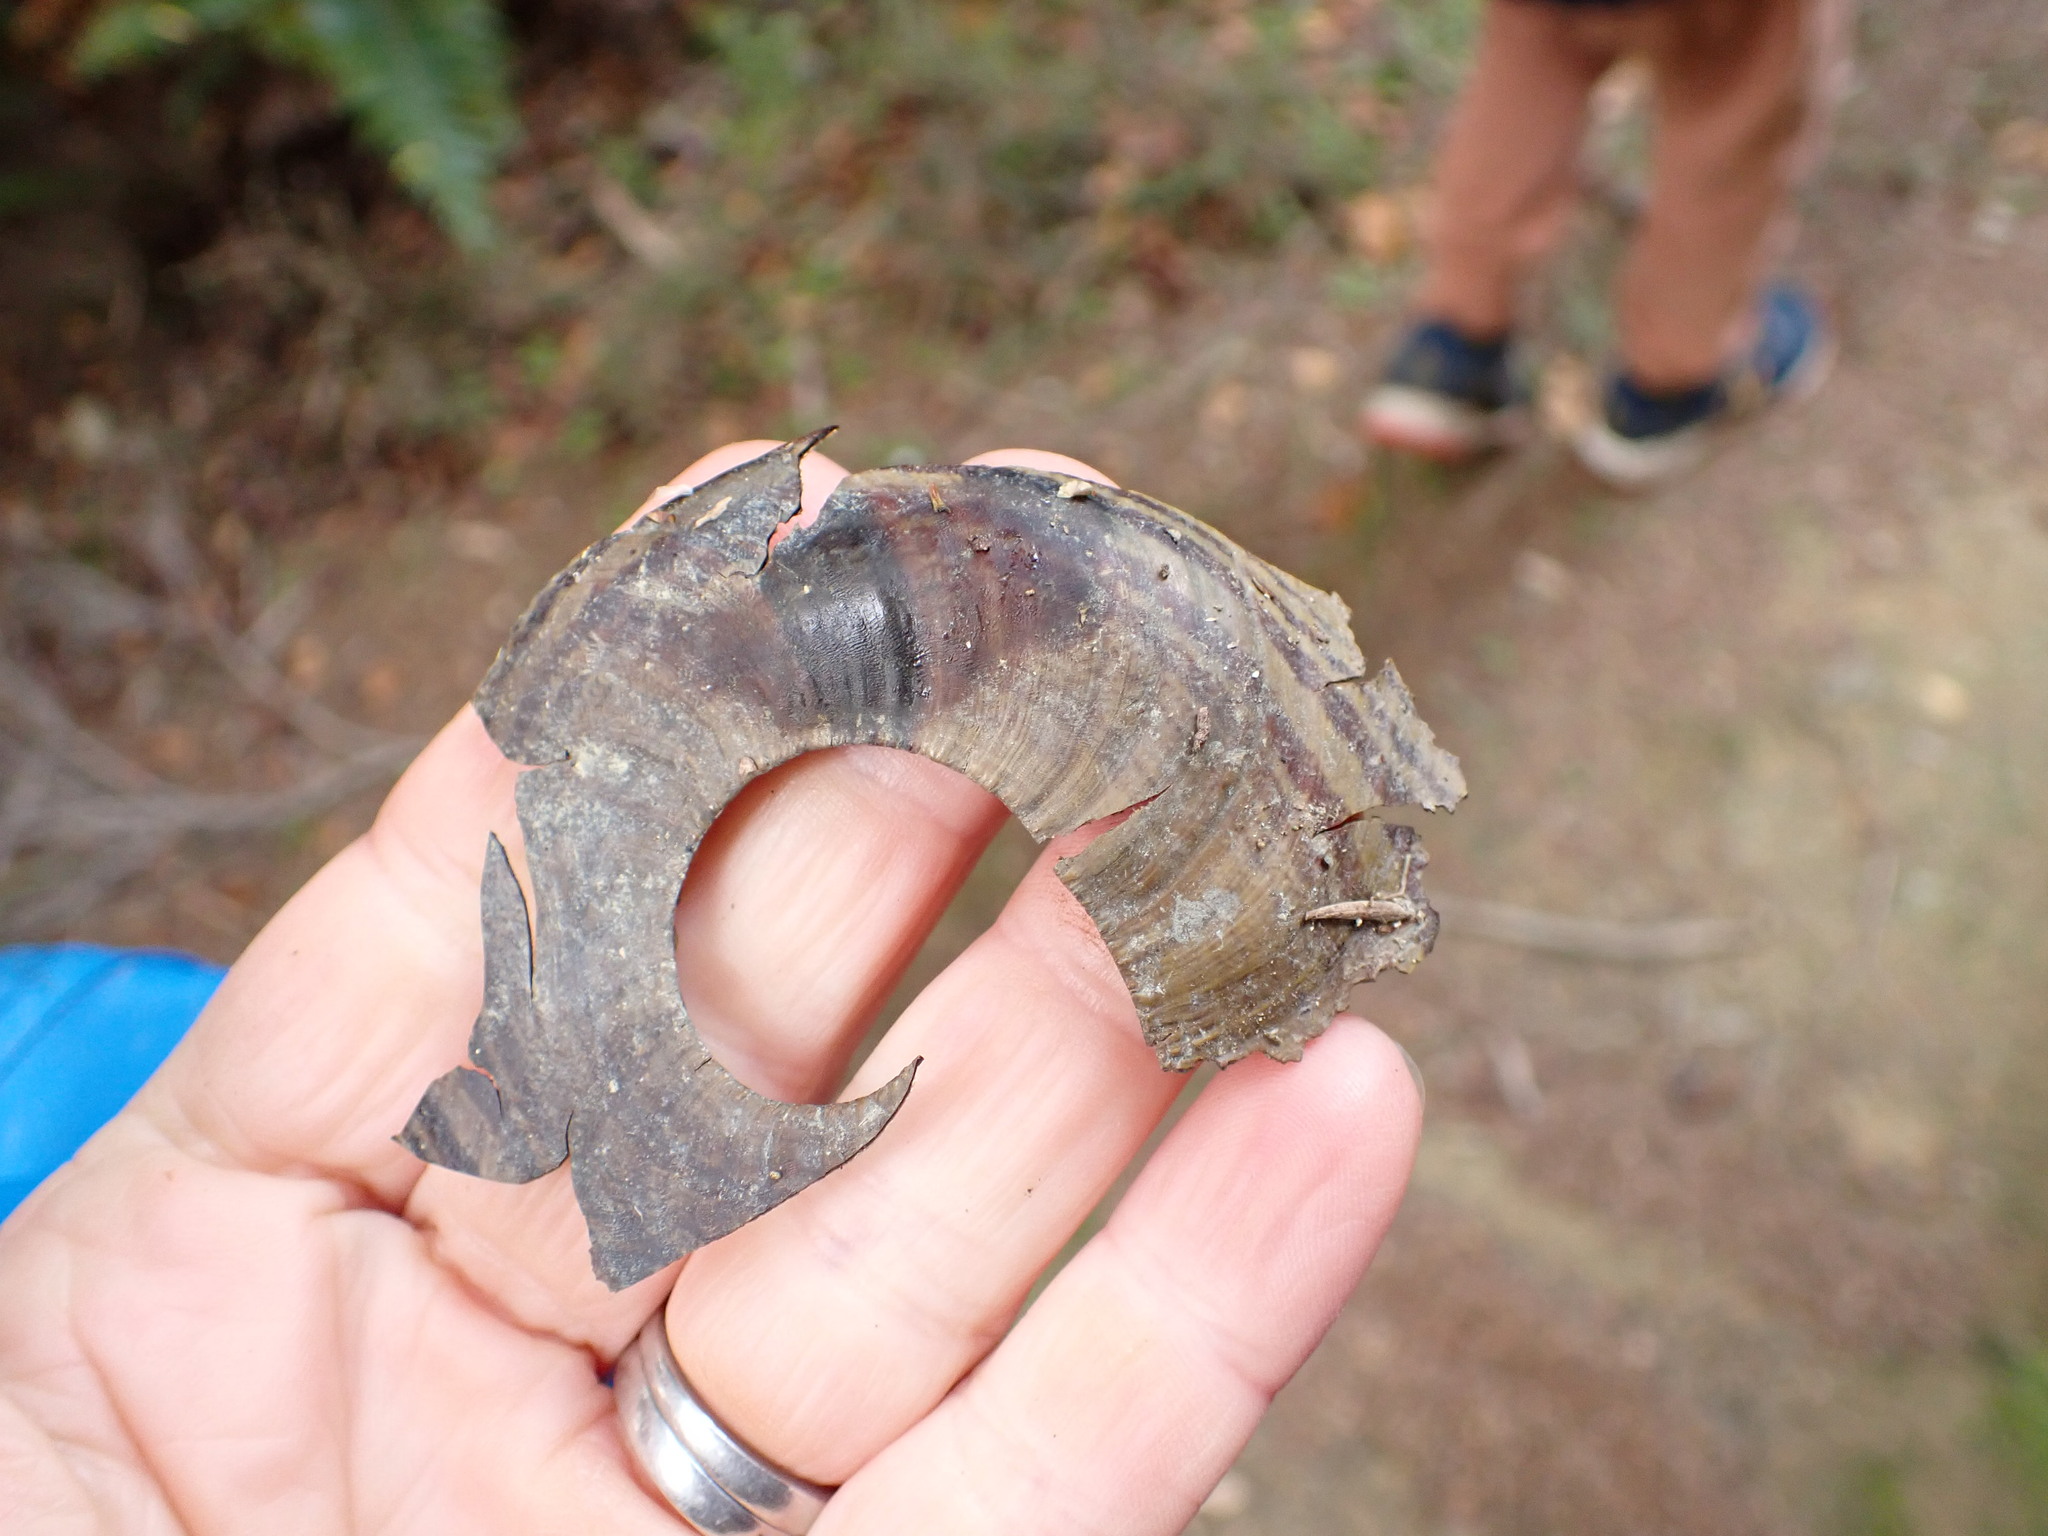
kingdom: Animalia
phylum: Mollusca
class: Gastropoda
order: Stylommatophora
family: Rhytididae
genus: Powelliphanta
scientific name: Powelliphanta hochstetteri
